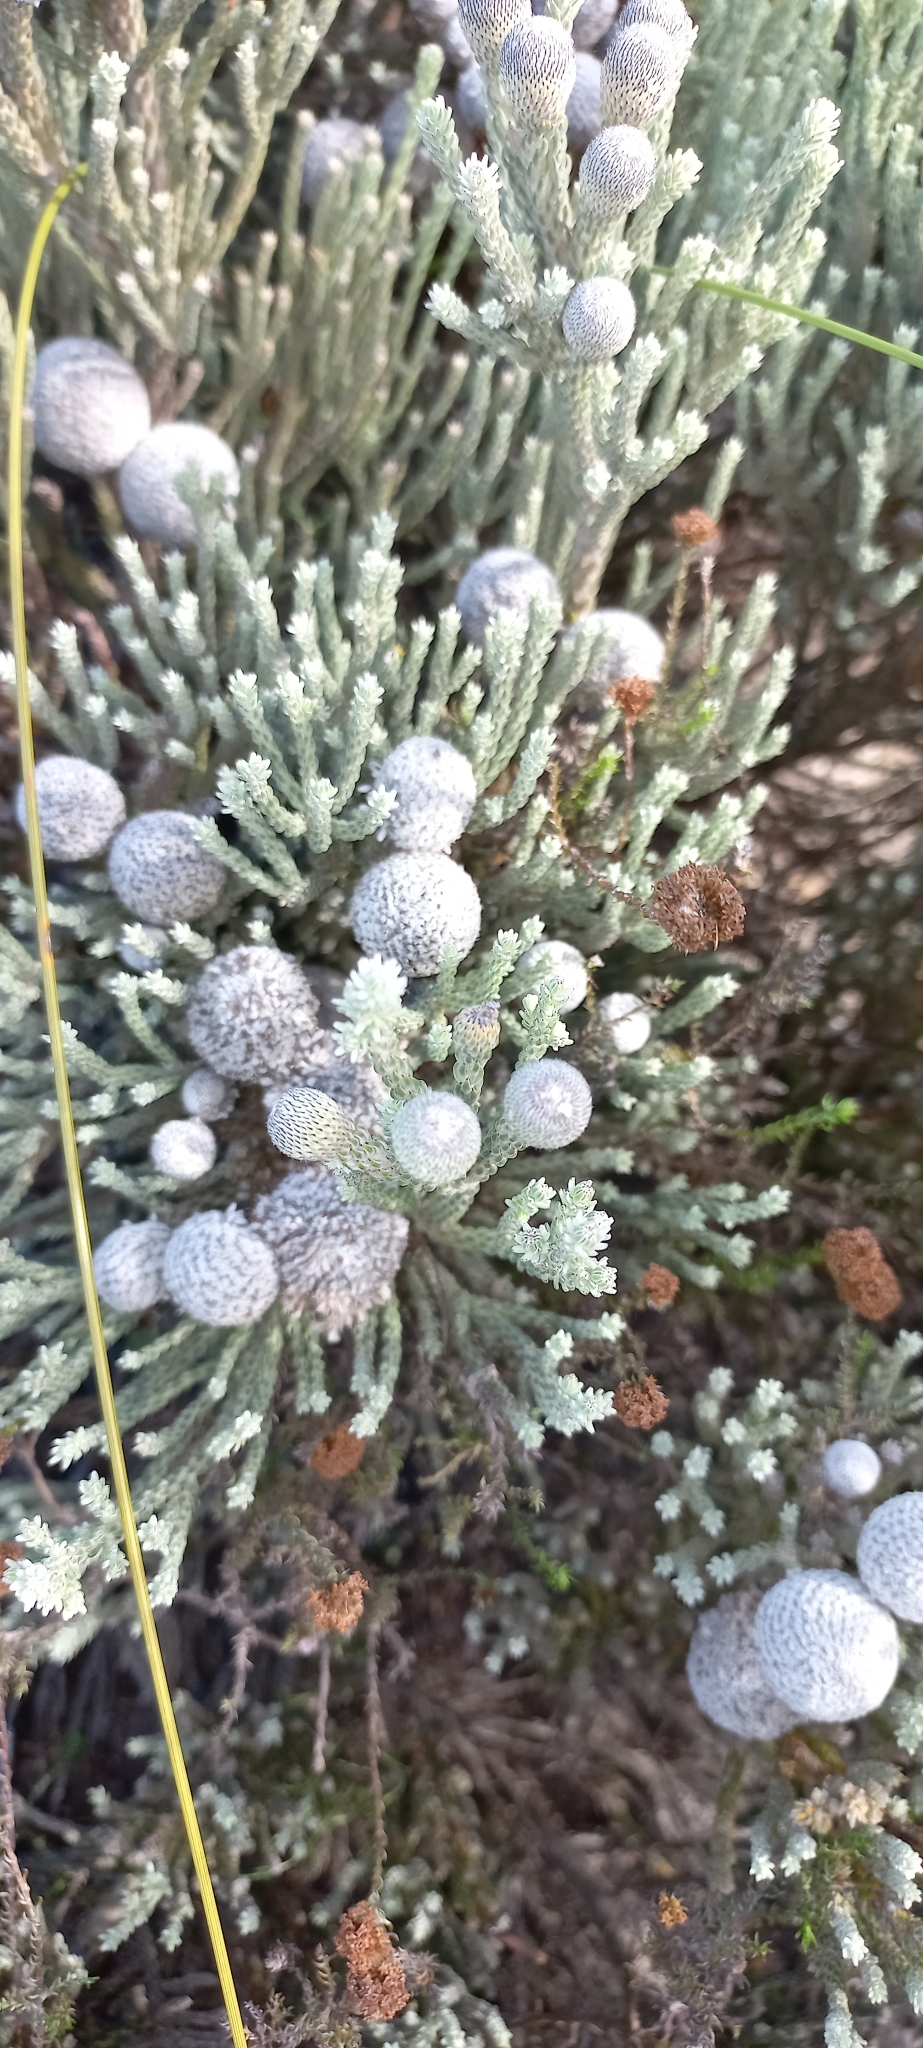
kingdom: Plantae
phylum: Tracheophyta
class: Magnoliopsida
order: Bruniales
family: Bruniaceae
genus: Brunia
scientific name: Brunia laevis
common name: Silver brunia
